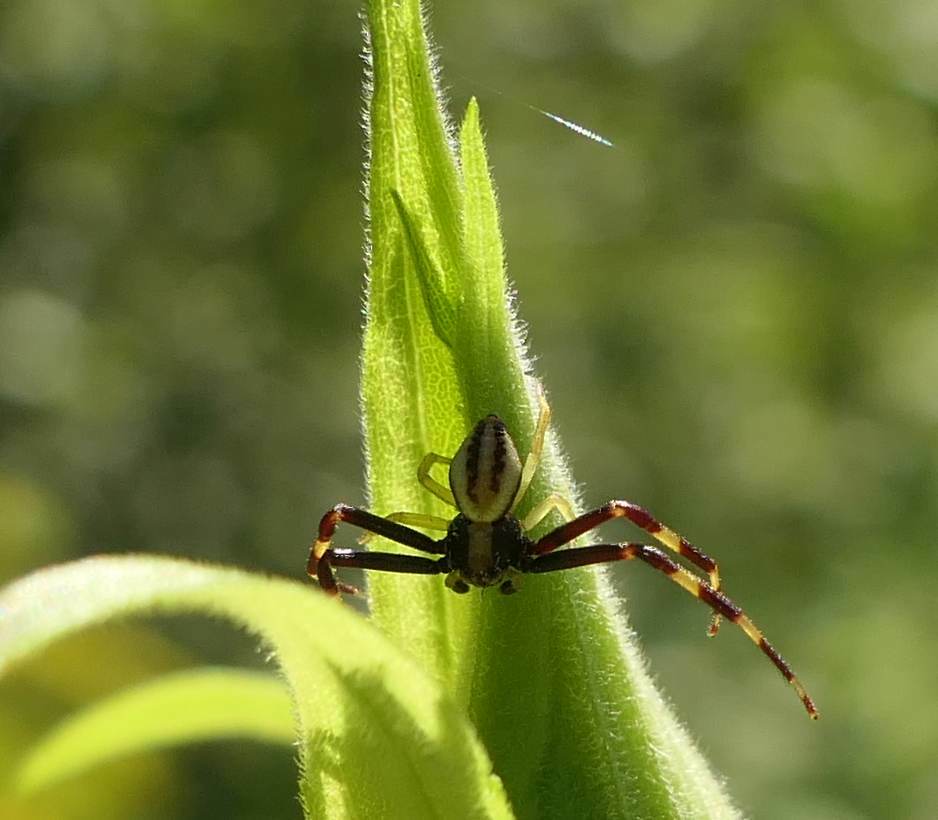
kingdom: Animalia
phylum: Arthropoda
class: Arachnida
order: Araneae
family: Thomisidae
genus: Misumena
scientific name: Misumena vatia
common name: Goldenrod crab spider
